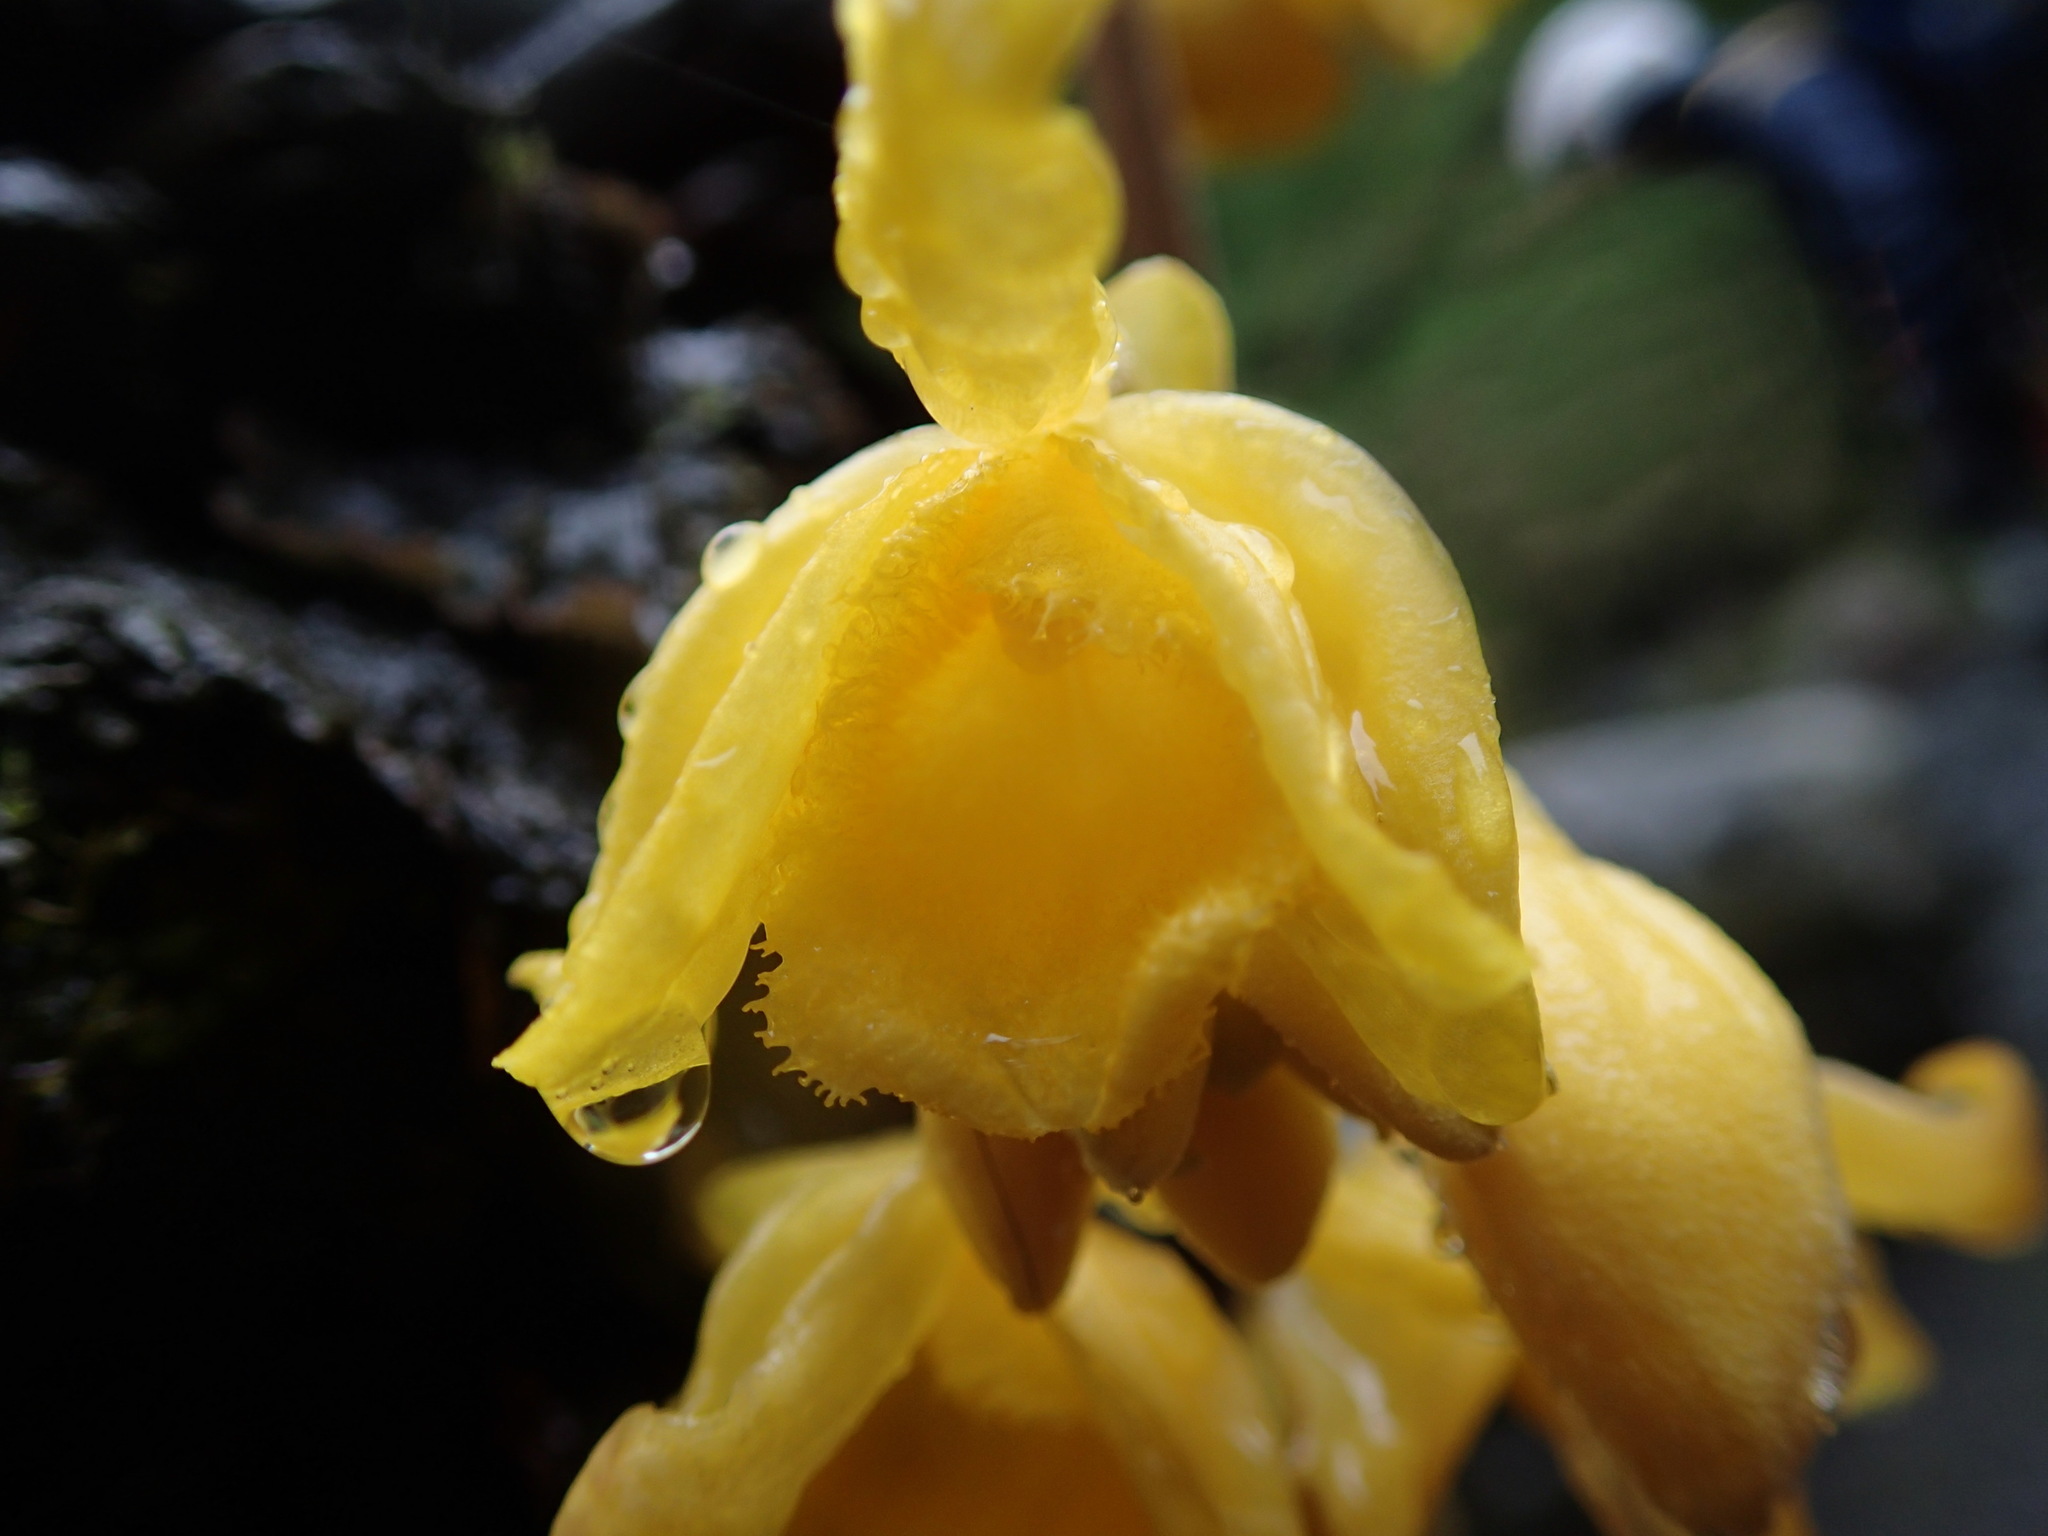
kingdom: Plantae
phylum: Tracheophyta
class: Liliopsida
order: Asparagales
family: Orchidaceae
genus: Cyrtosia
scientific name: Cyrtosia falconeri
